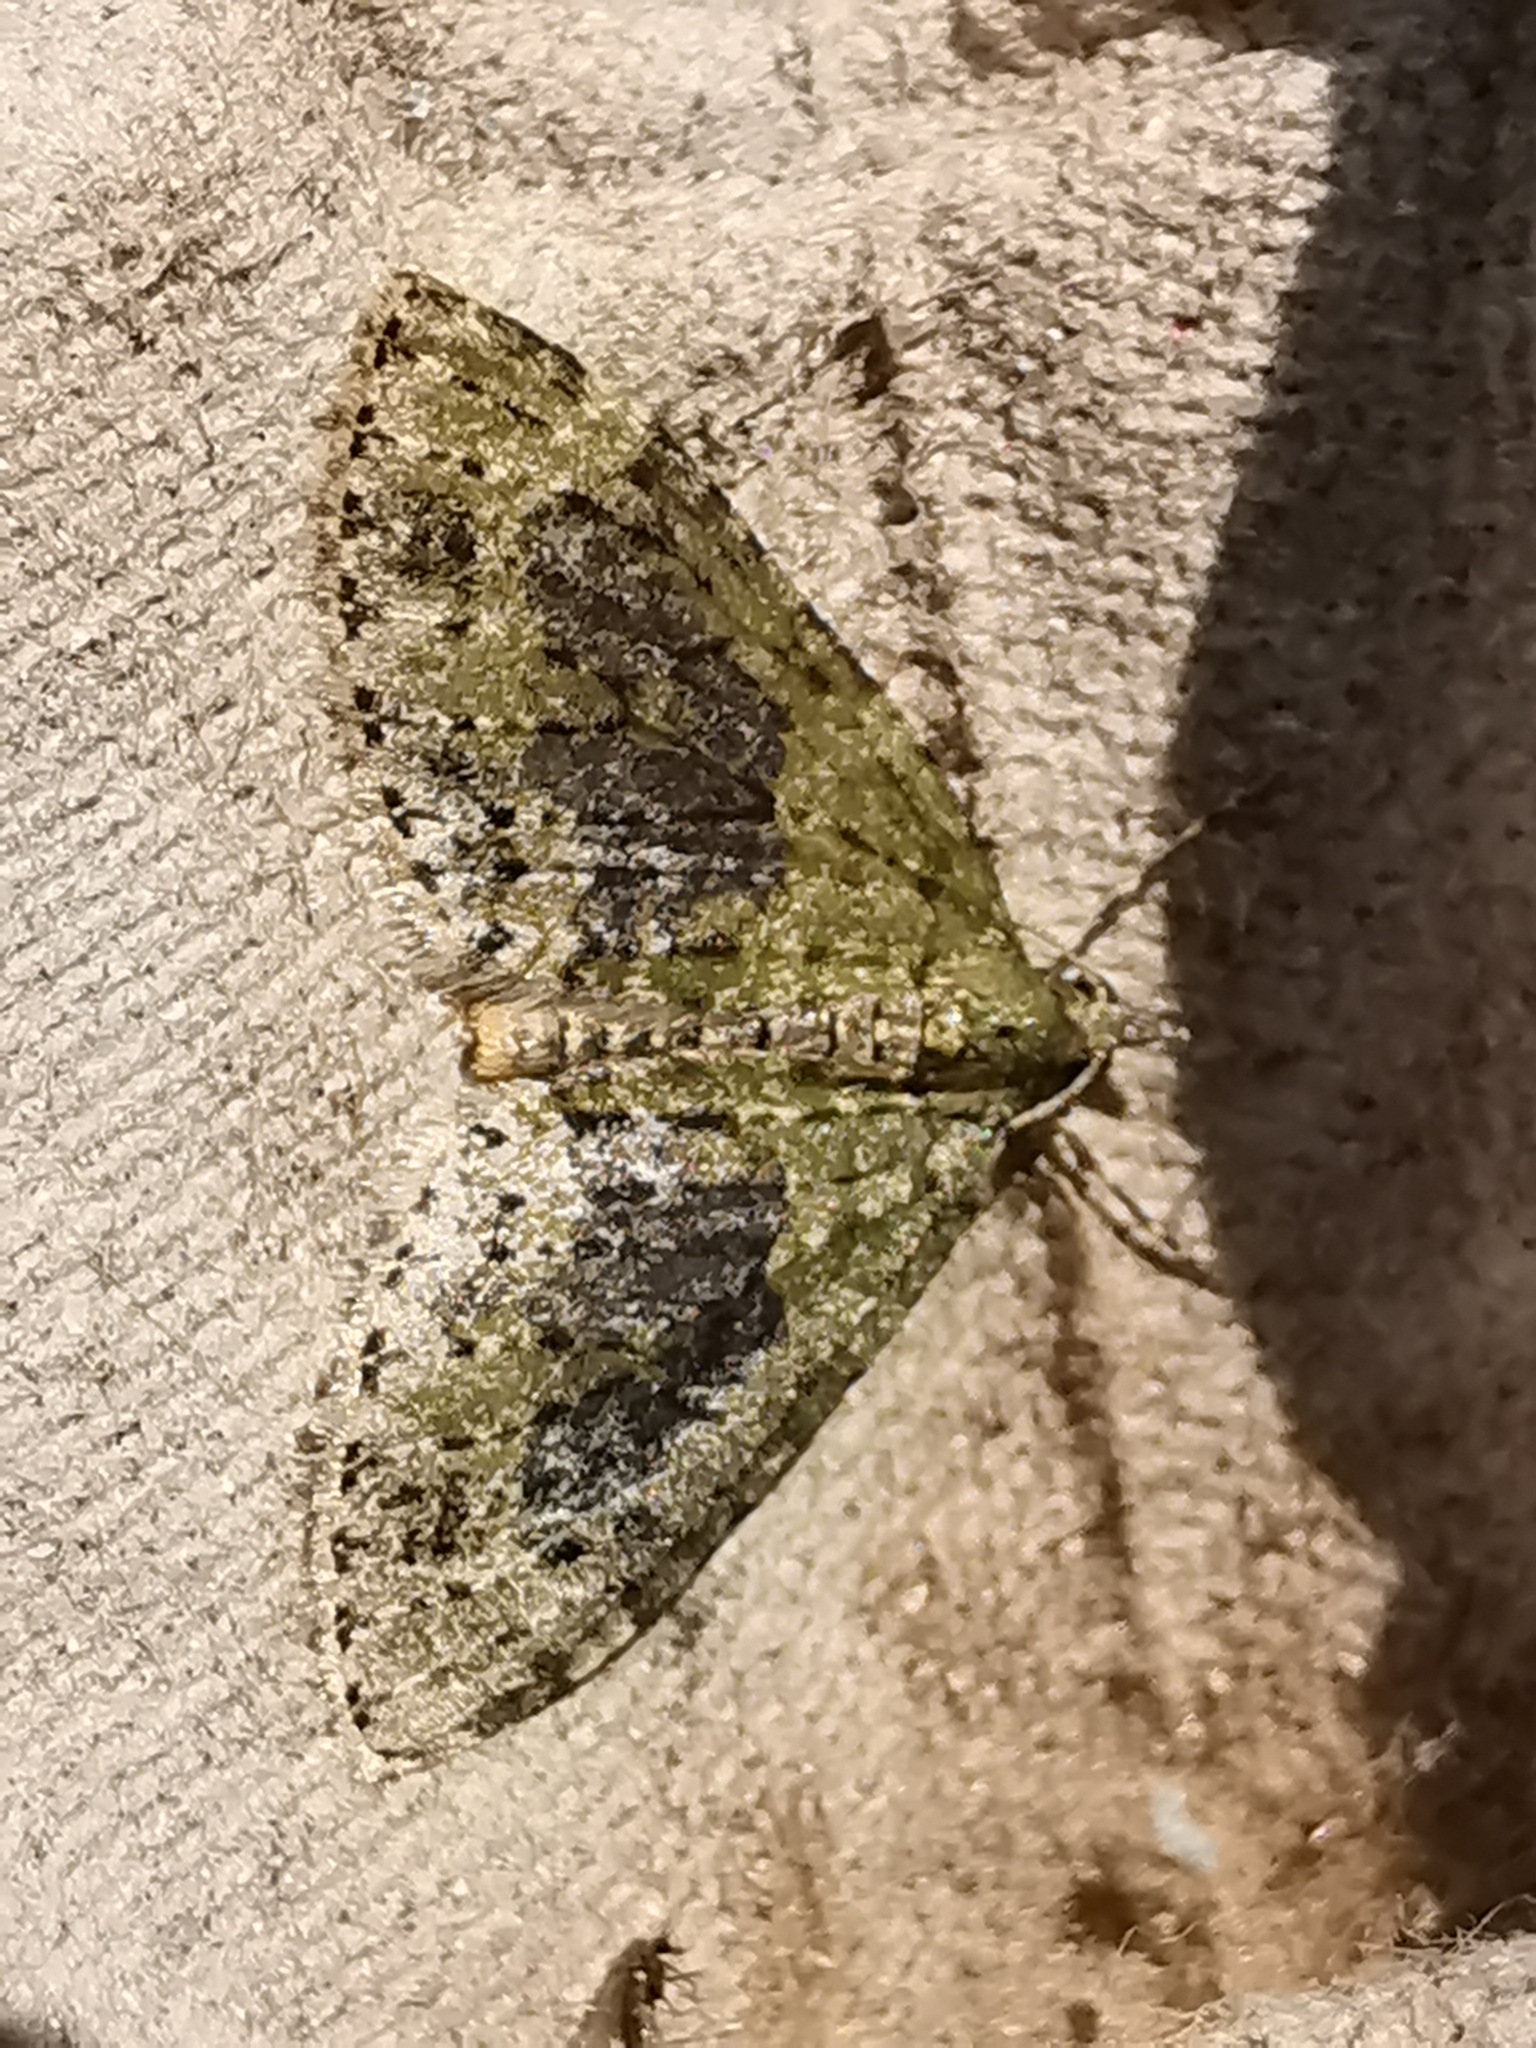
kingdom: Animalia
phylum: Arthropoda
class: Insecta
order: Lepidoptera
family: Geometridae
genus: Acasis
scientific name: Acasis viretata
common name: Yellow-barred brindle
